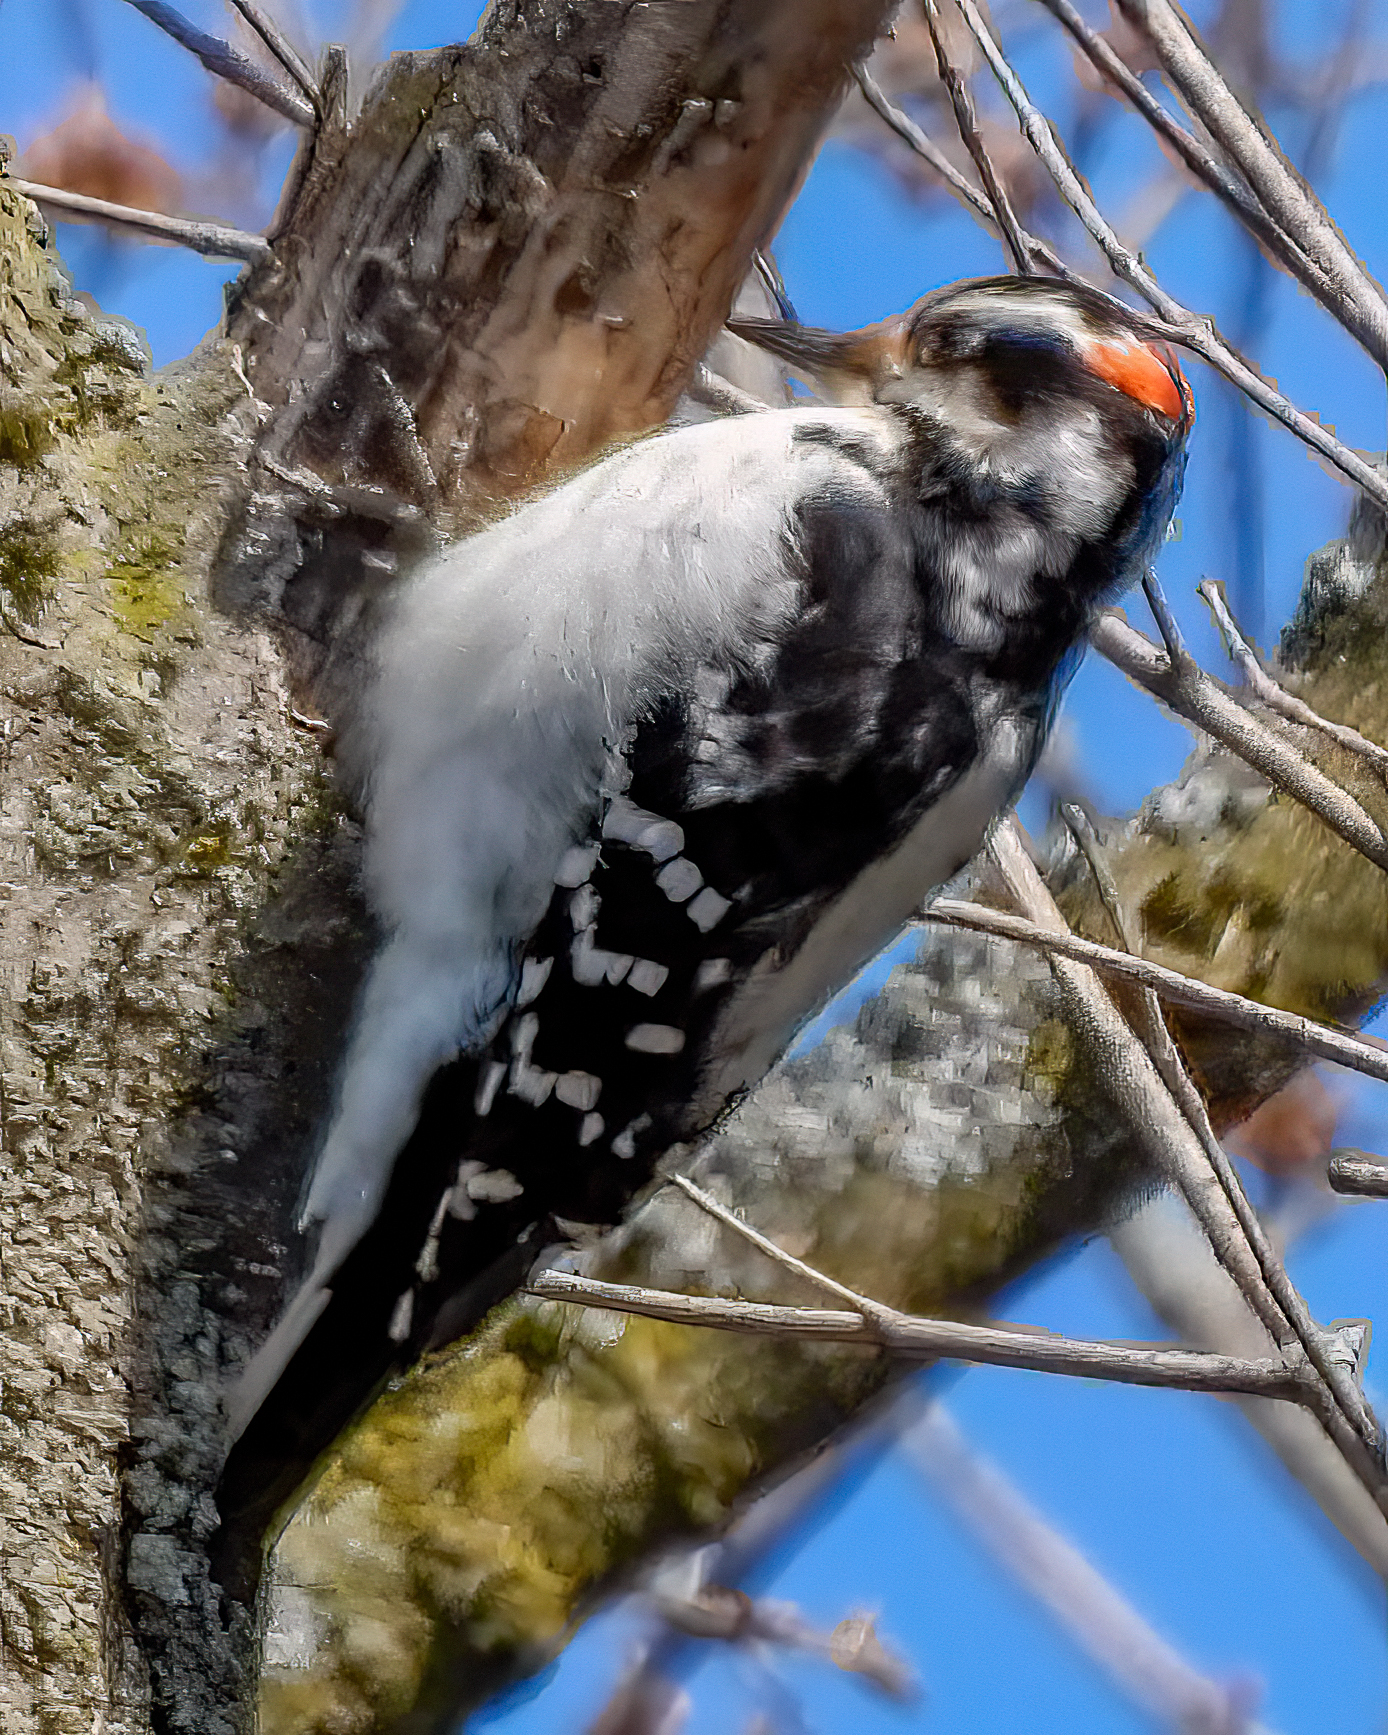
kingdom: Animalia
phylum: Chordata
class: Aves
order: Piciformes
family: Picidae
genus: Leuconotopicus
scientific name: Leuconotopicus villosus
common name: Hairy woodpecker
